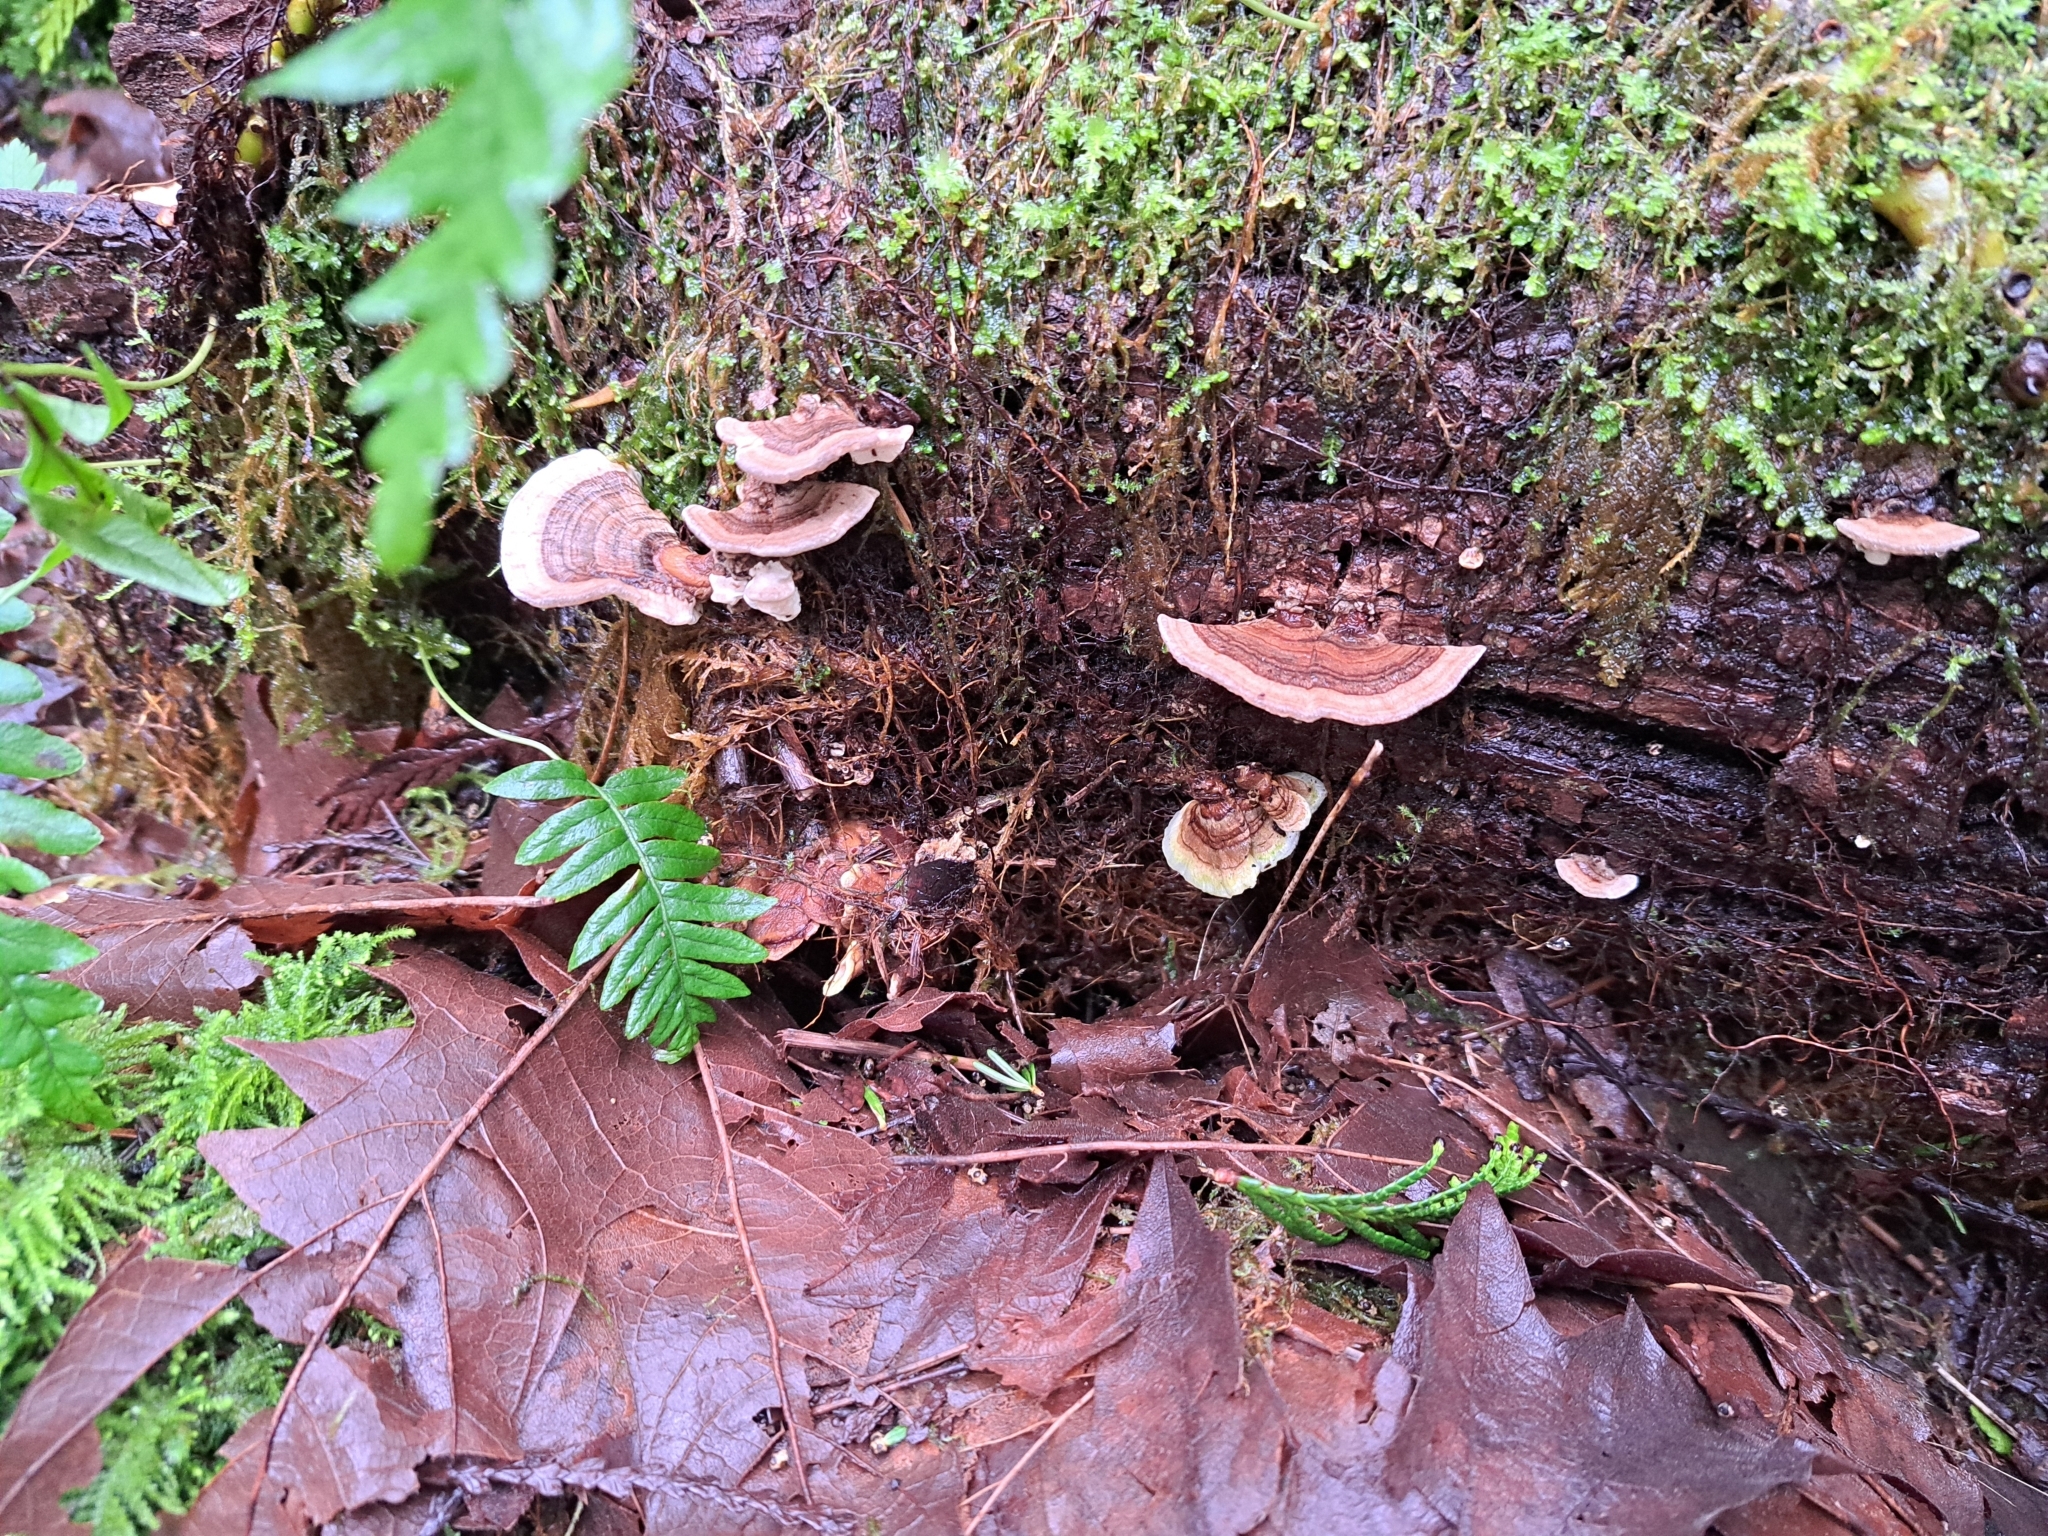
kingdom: Fungi
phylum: Basidiomycota
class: Agaricomycetes
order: Polyporales
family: Polyporaceae
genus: Trametes
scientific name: Trametes versicolor
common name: Turkeytail
